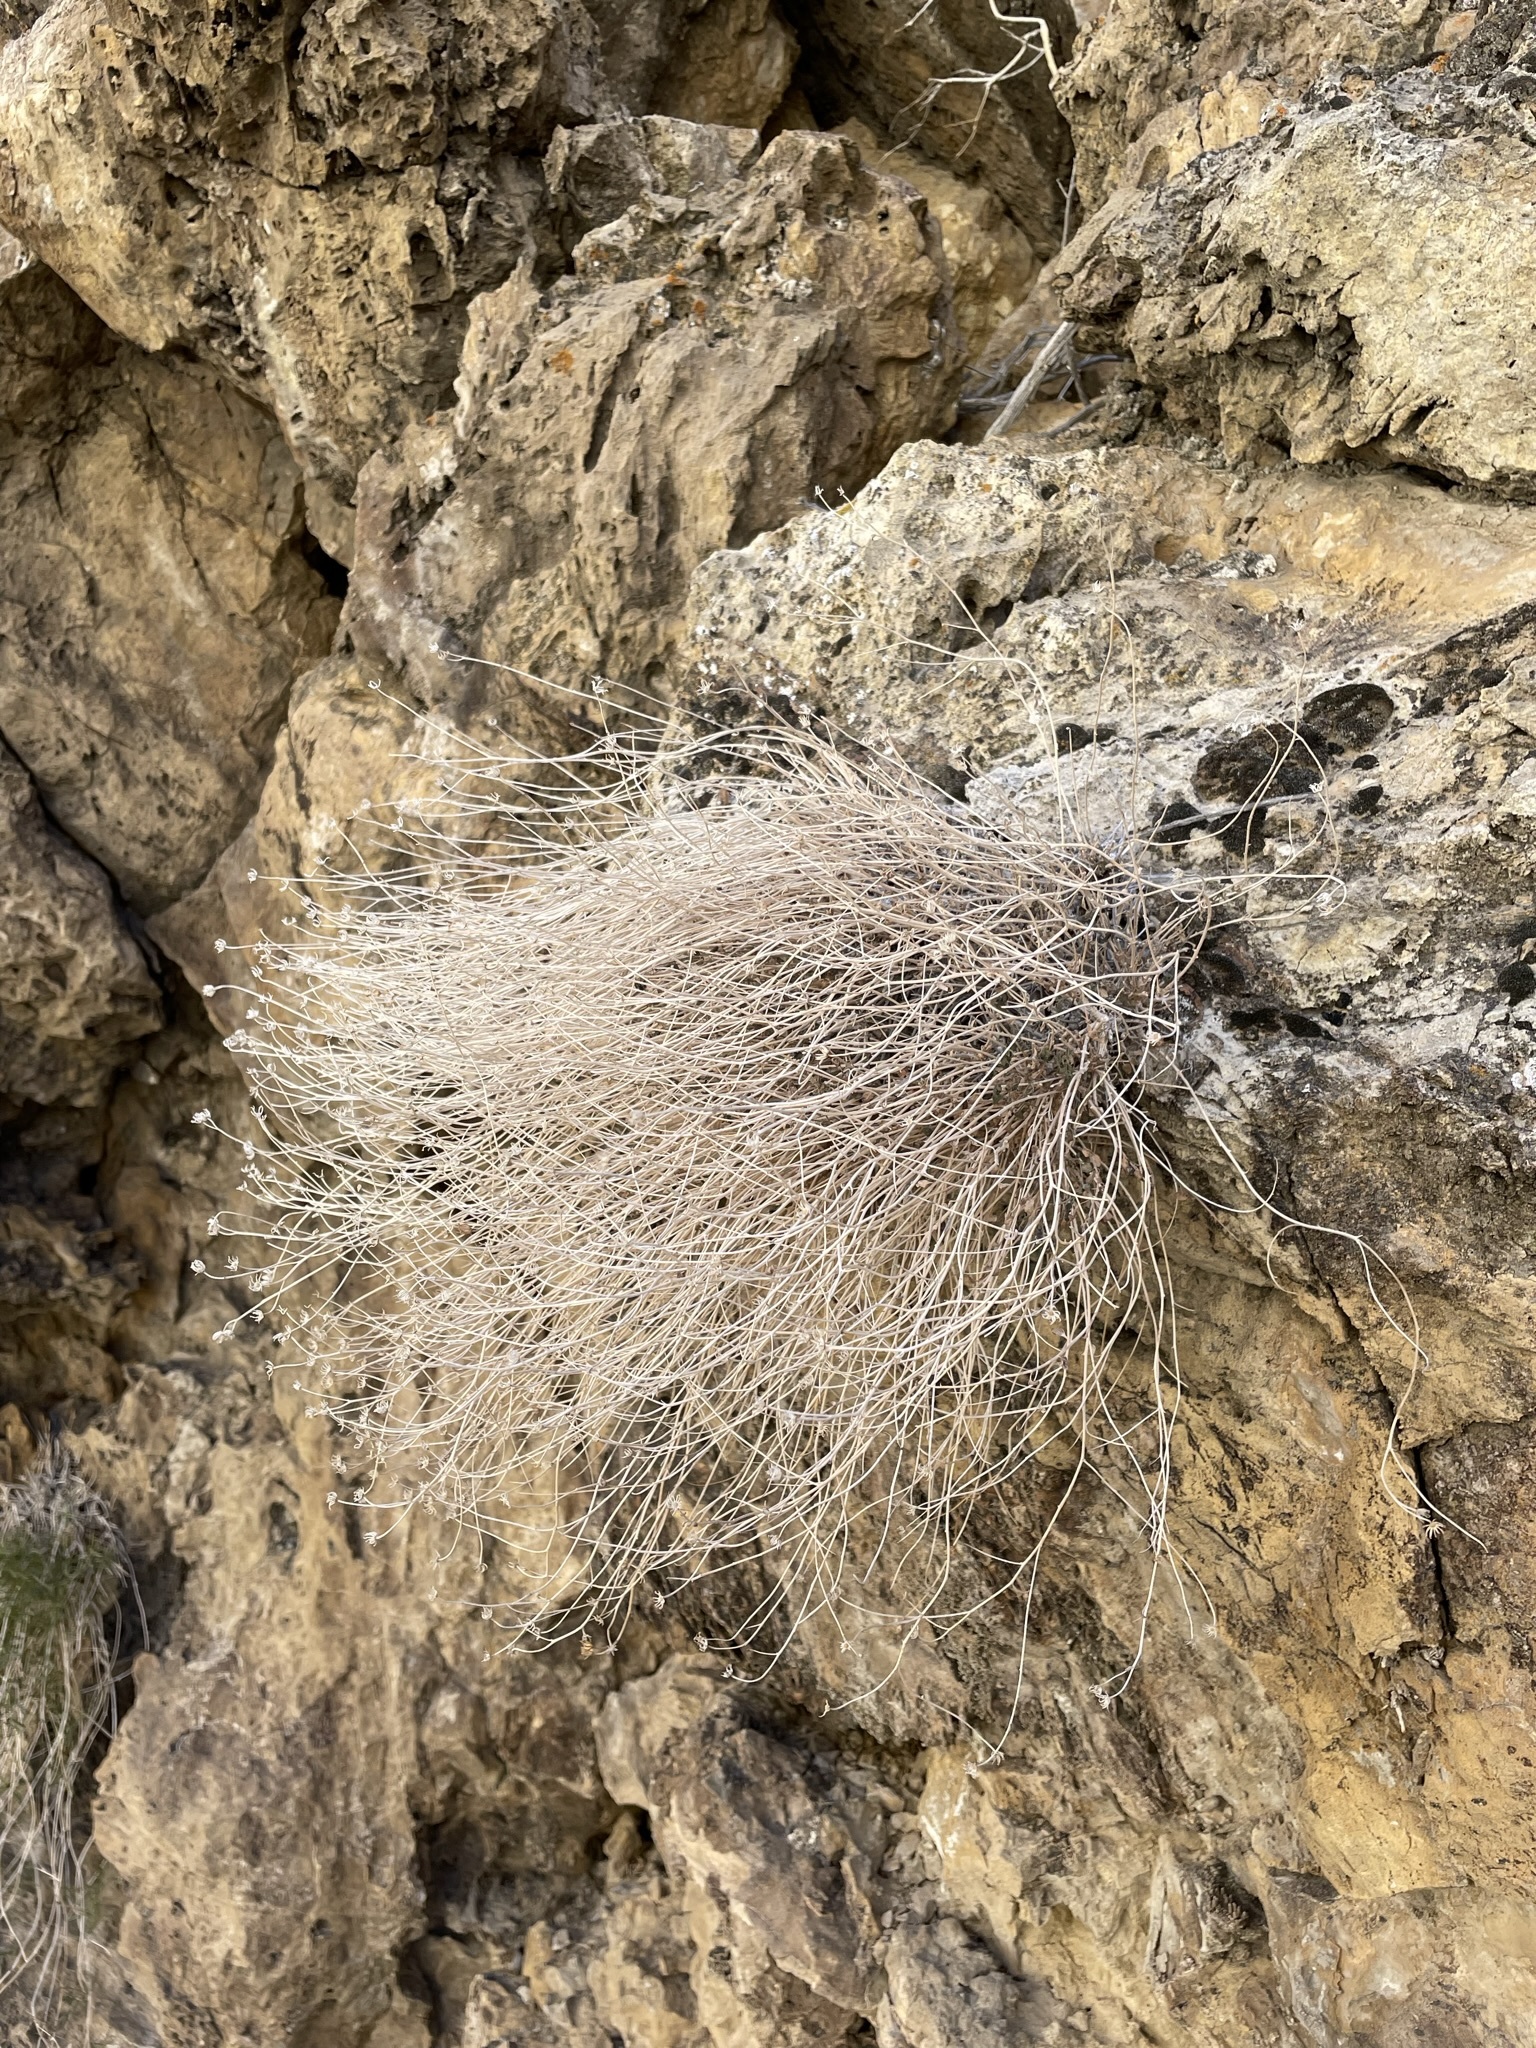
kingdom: Plantae
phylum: Tracheophyta
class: Magnoliopsida
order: Asterales
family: Asteraceae
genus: Laphamia
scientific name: Laphamia megalocephala
